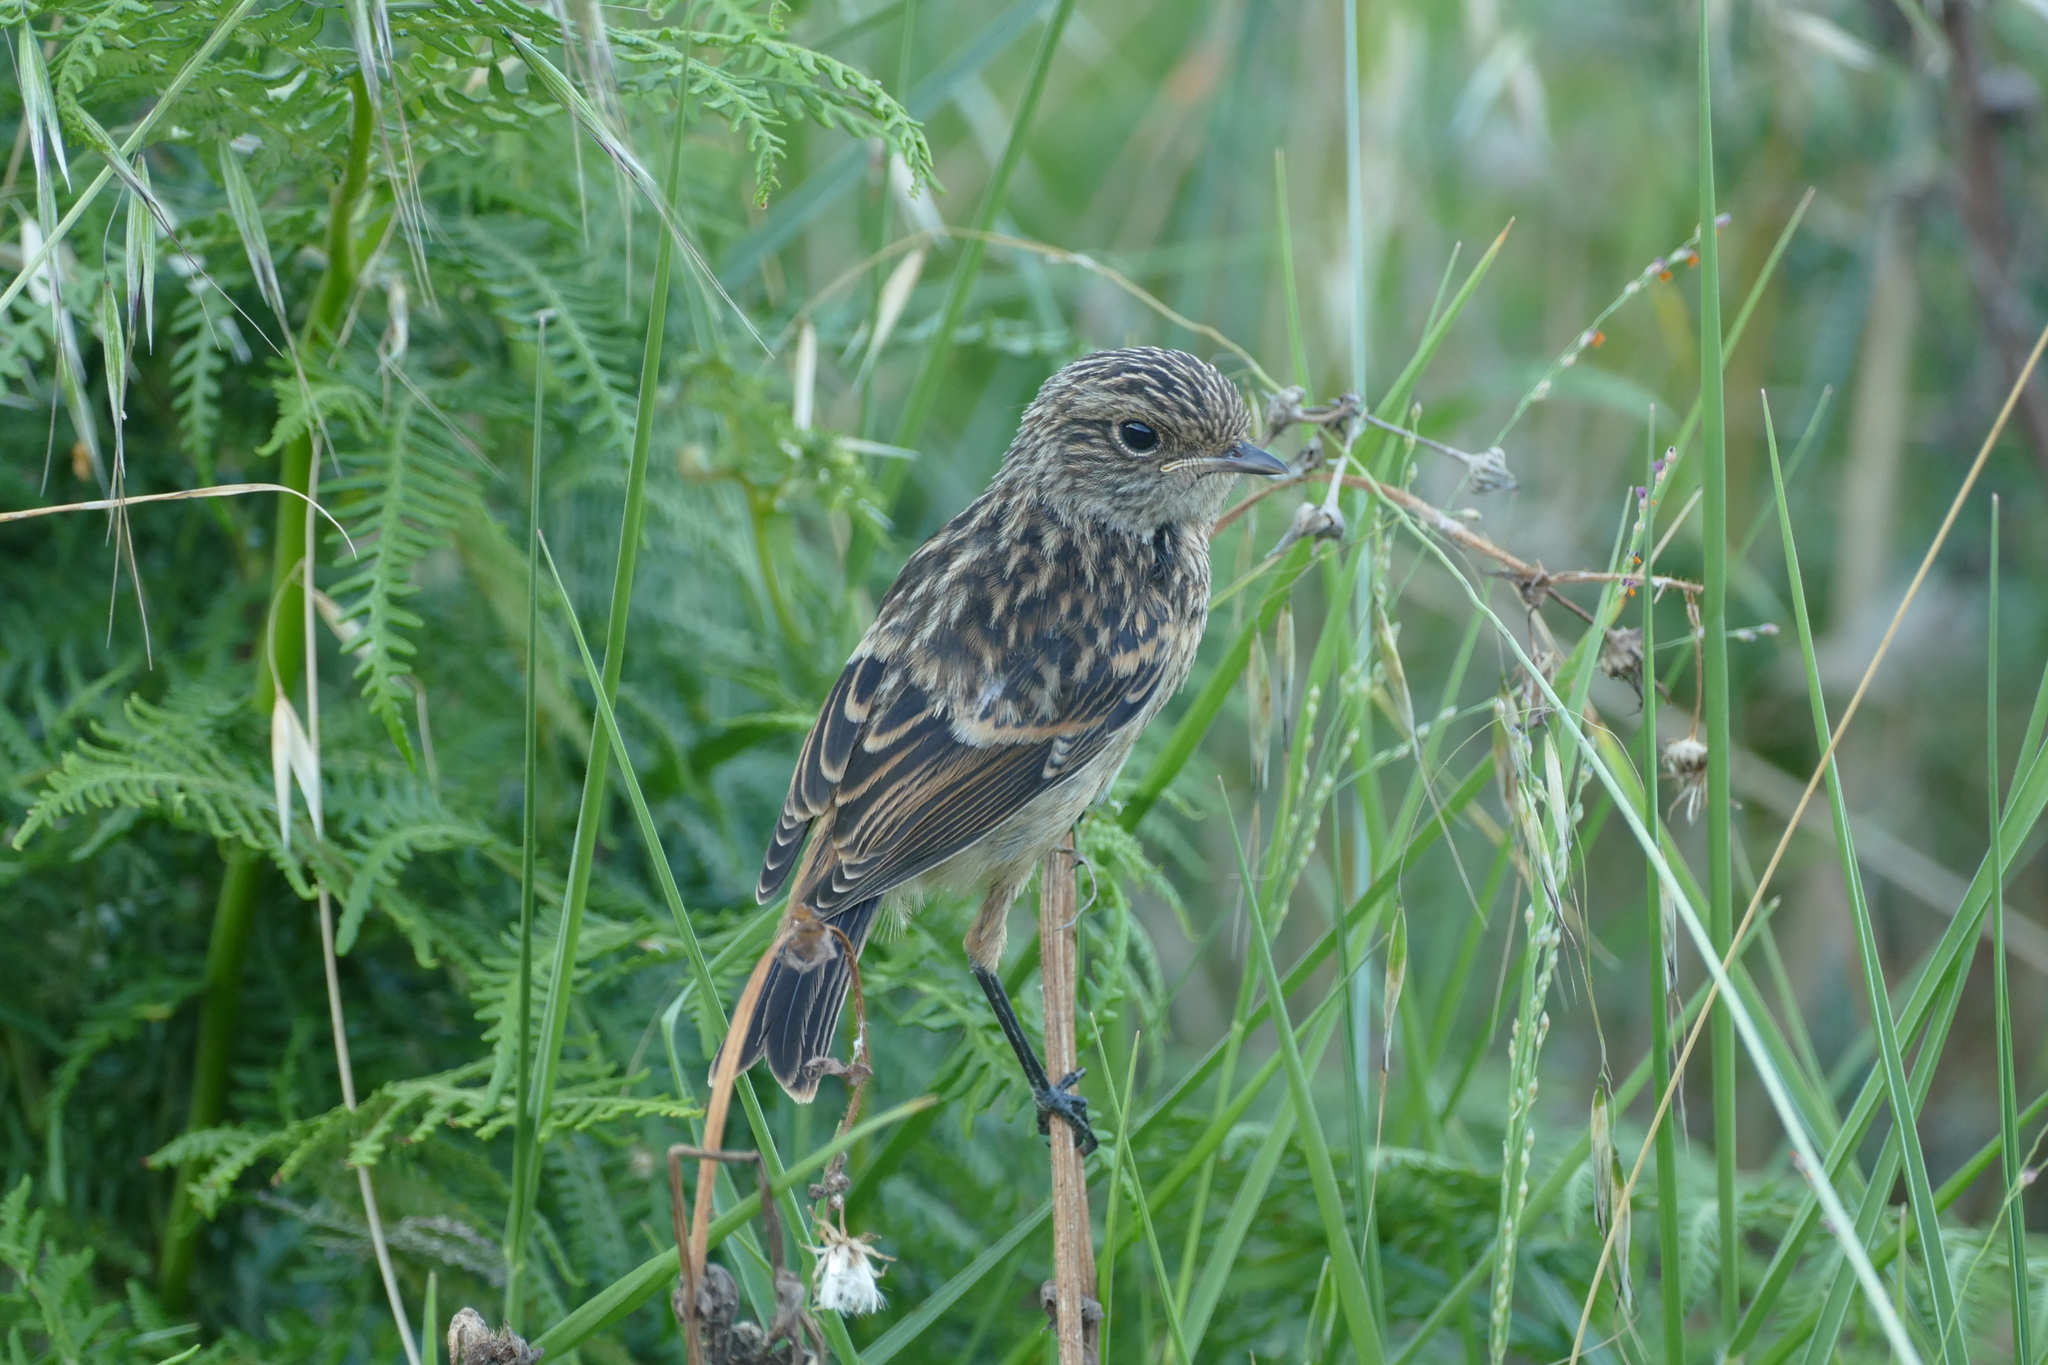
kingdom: Animalia
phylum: Chordata
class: Aves
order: Passeriformes
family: Muscicapidae
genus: Saxicola
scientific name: Saxicola rubicola
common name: European stonechat
